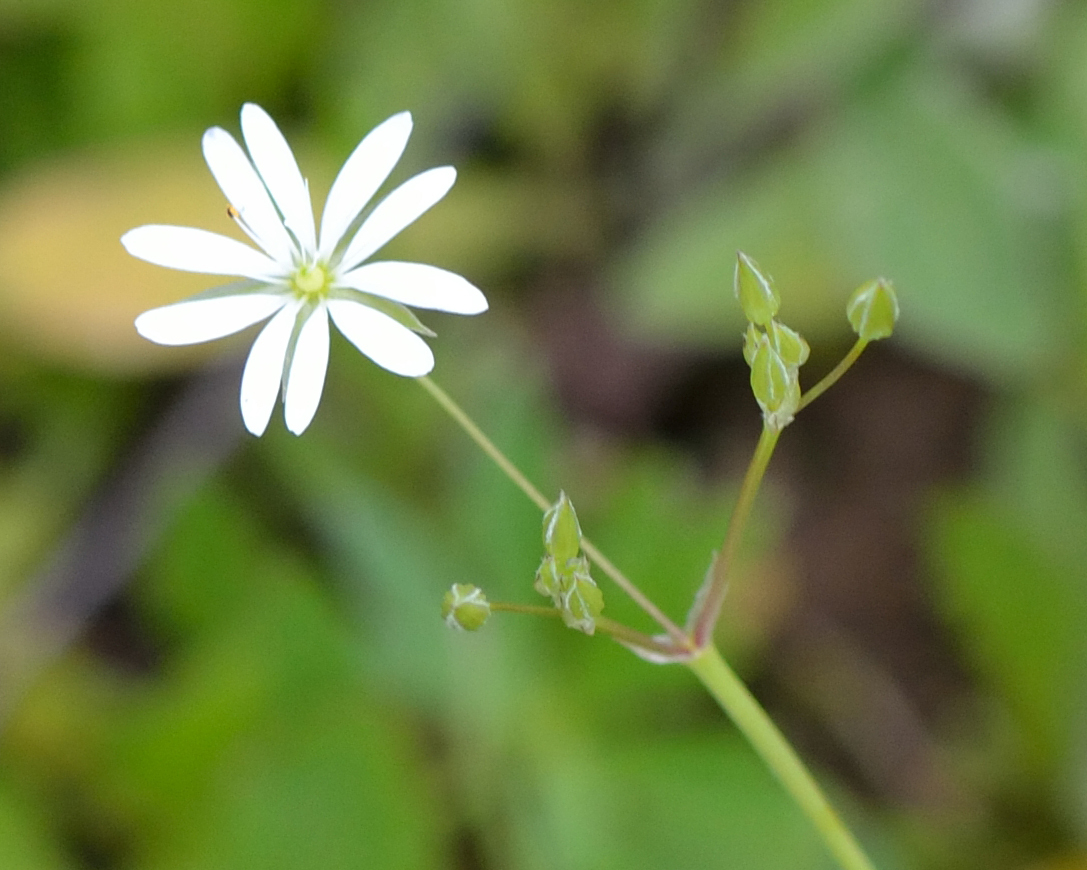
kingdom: Plantae
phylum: Tracheophyta
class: Magnoliopsida
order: Caryophyllales
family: Caryophyllaceae
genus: Stellaria
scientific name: Stellaria graminea
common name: Grass-like starwort
